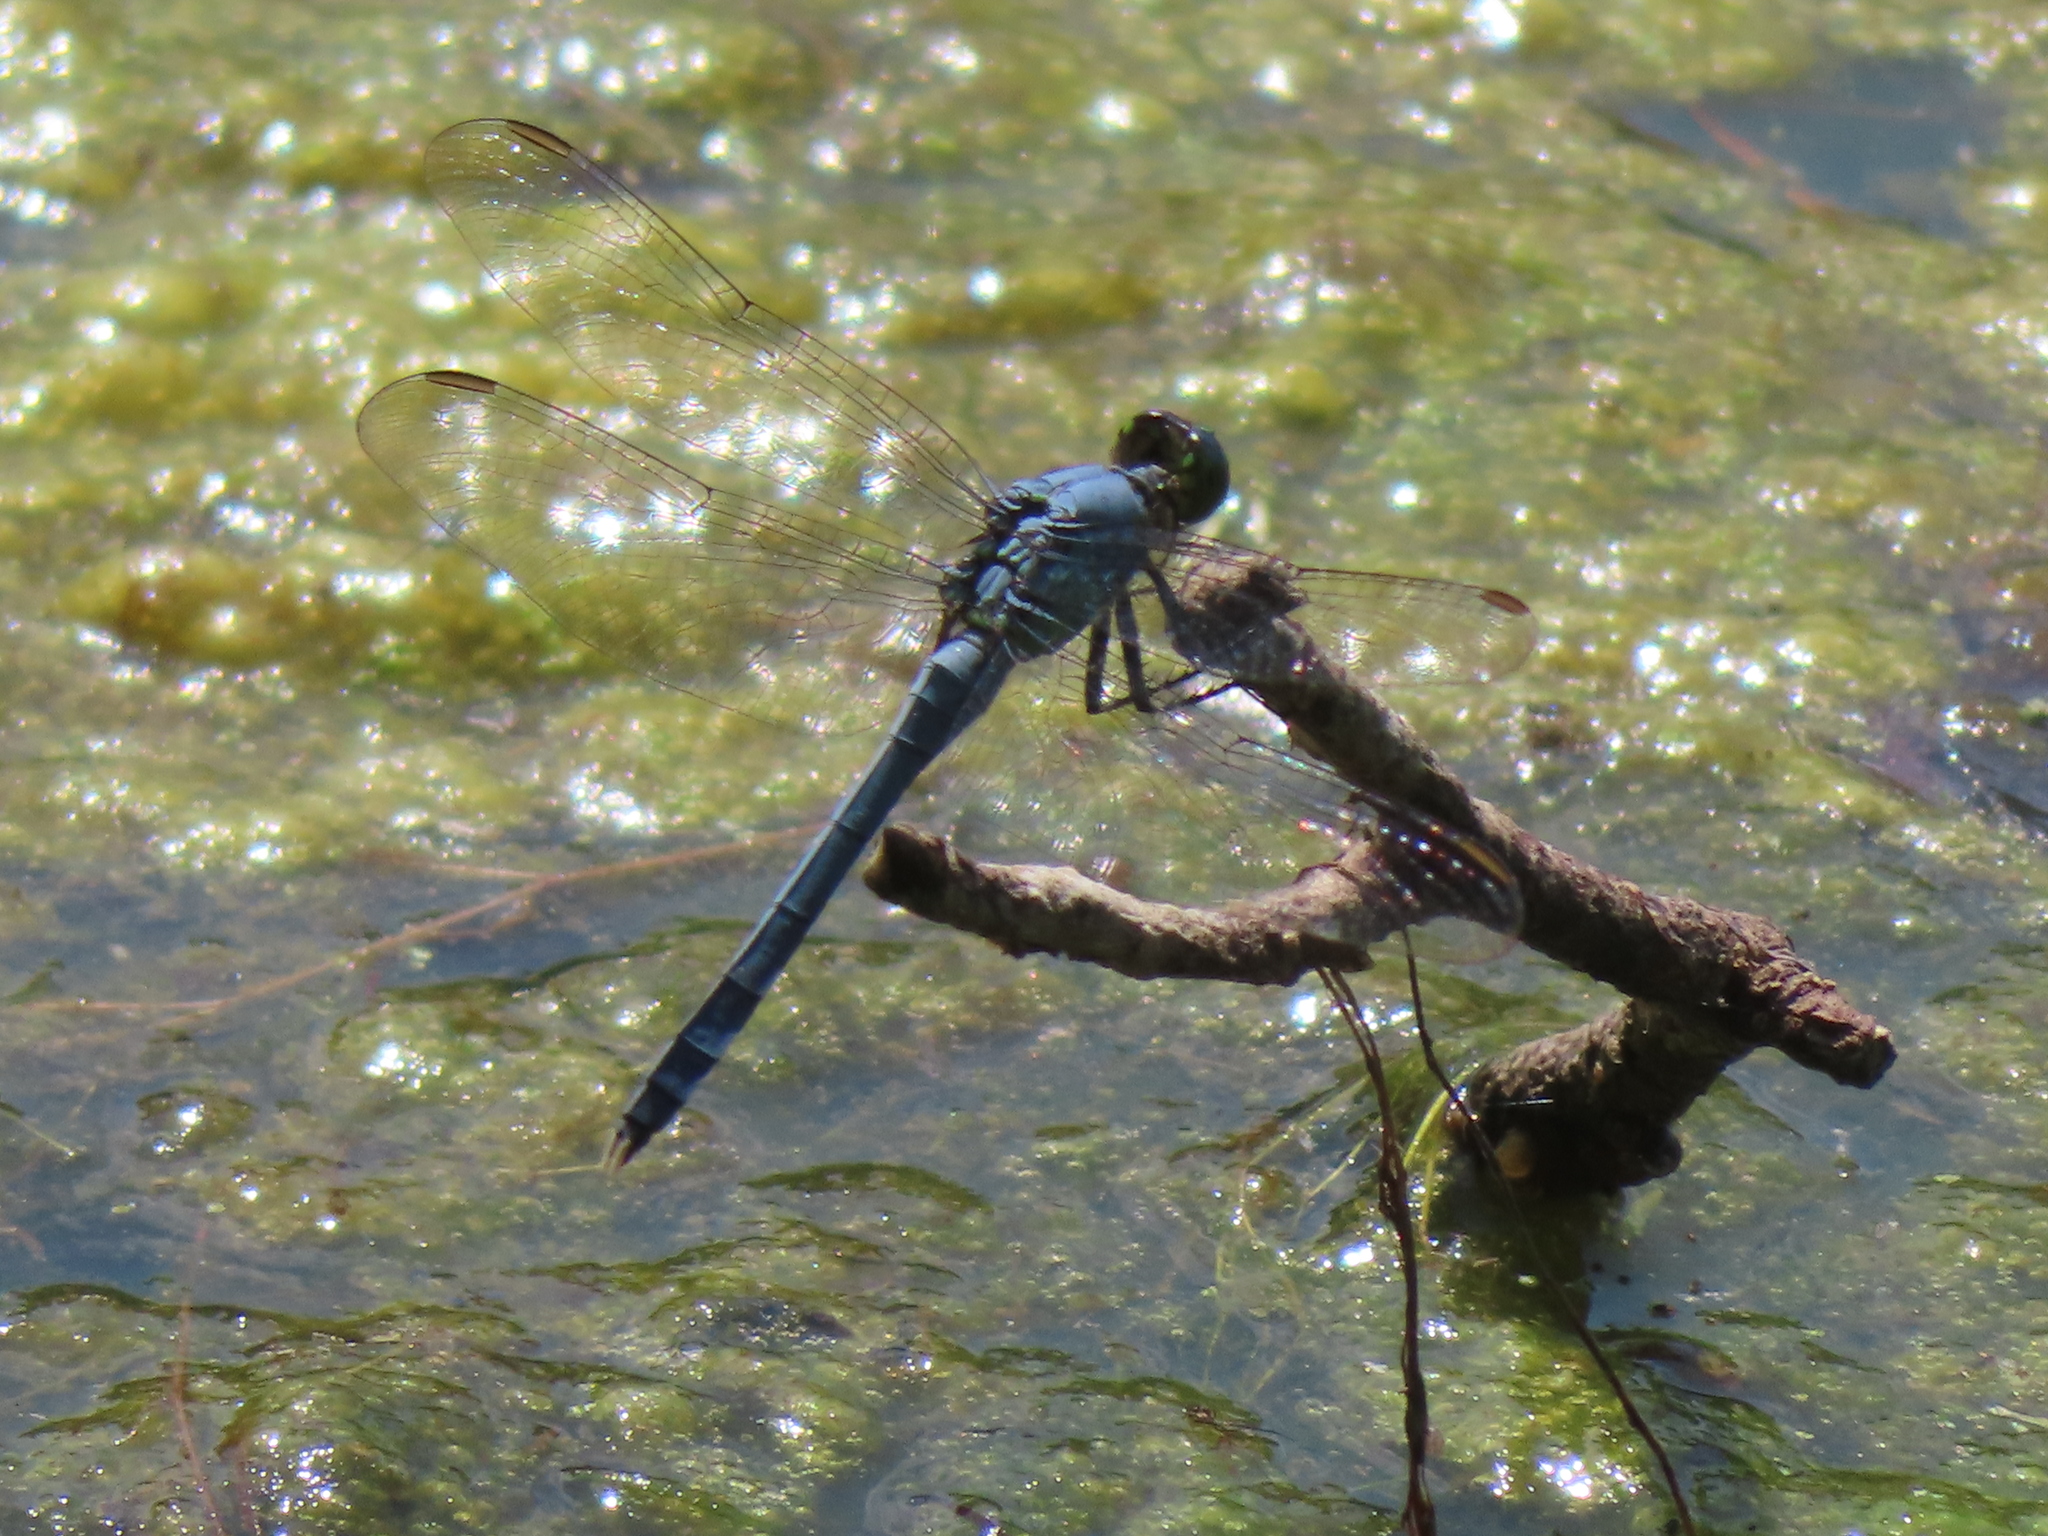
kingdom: Animalia
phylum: Arthropoda
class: Insecta
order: Odonata
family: Libellulidae
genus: Erythemis
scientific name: Erythemis simplicicollis
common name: Eastern pondhawk
